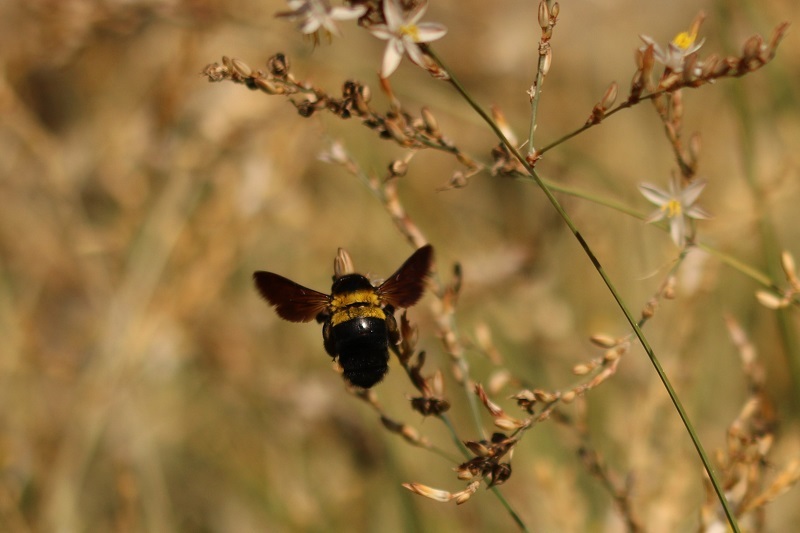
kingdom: Animalia
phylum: Arthropoda
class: Insecta
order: Hymenoptera
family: Apidae
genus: Xylocopa
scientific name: Xylocopa caffra
